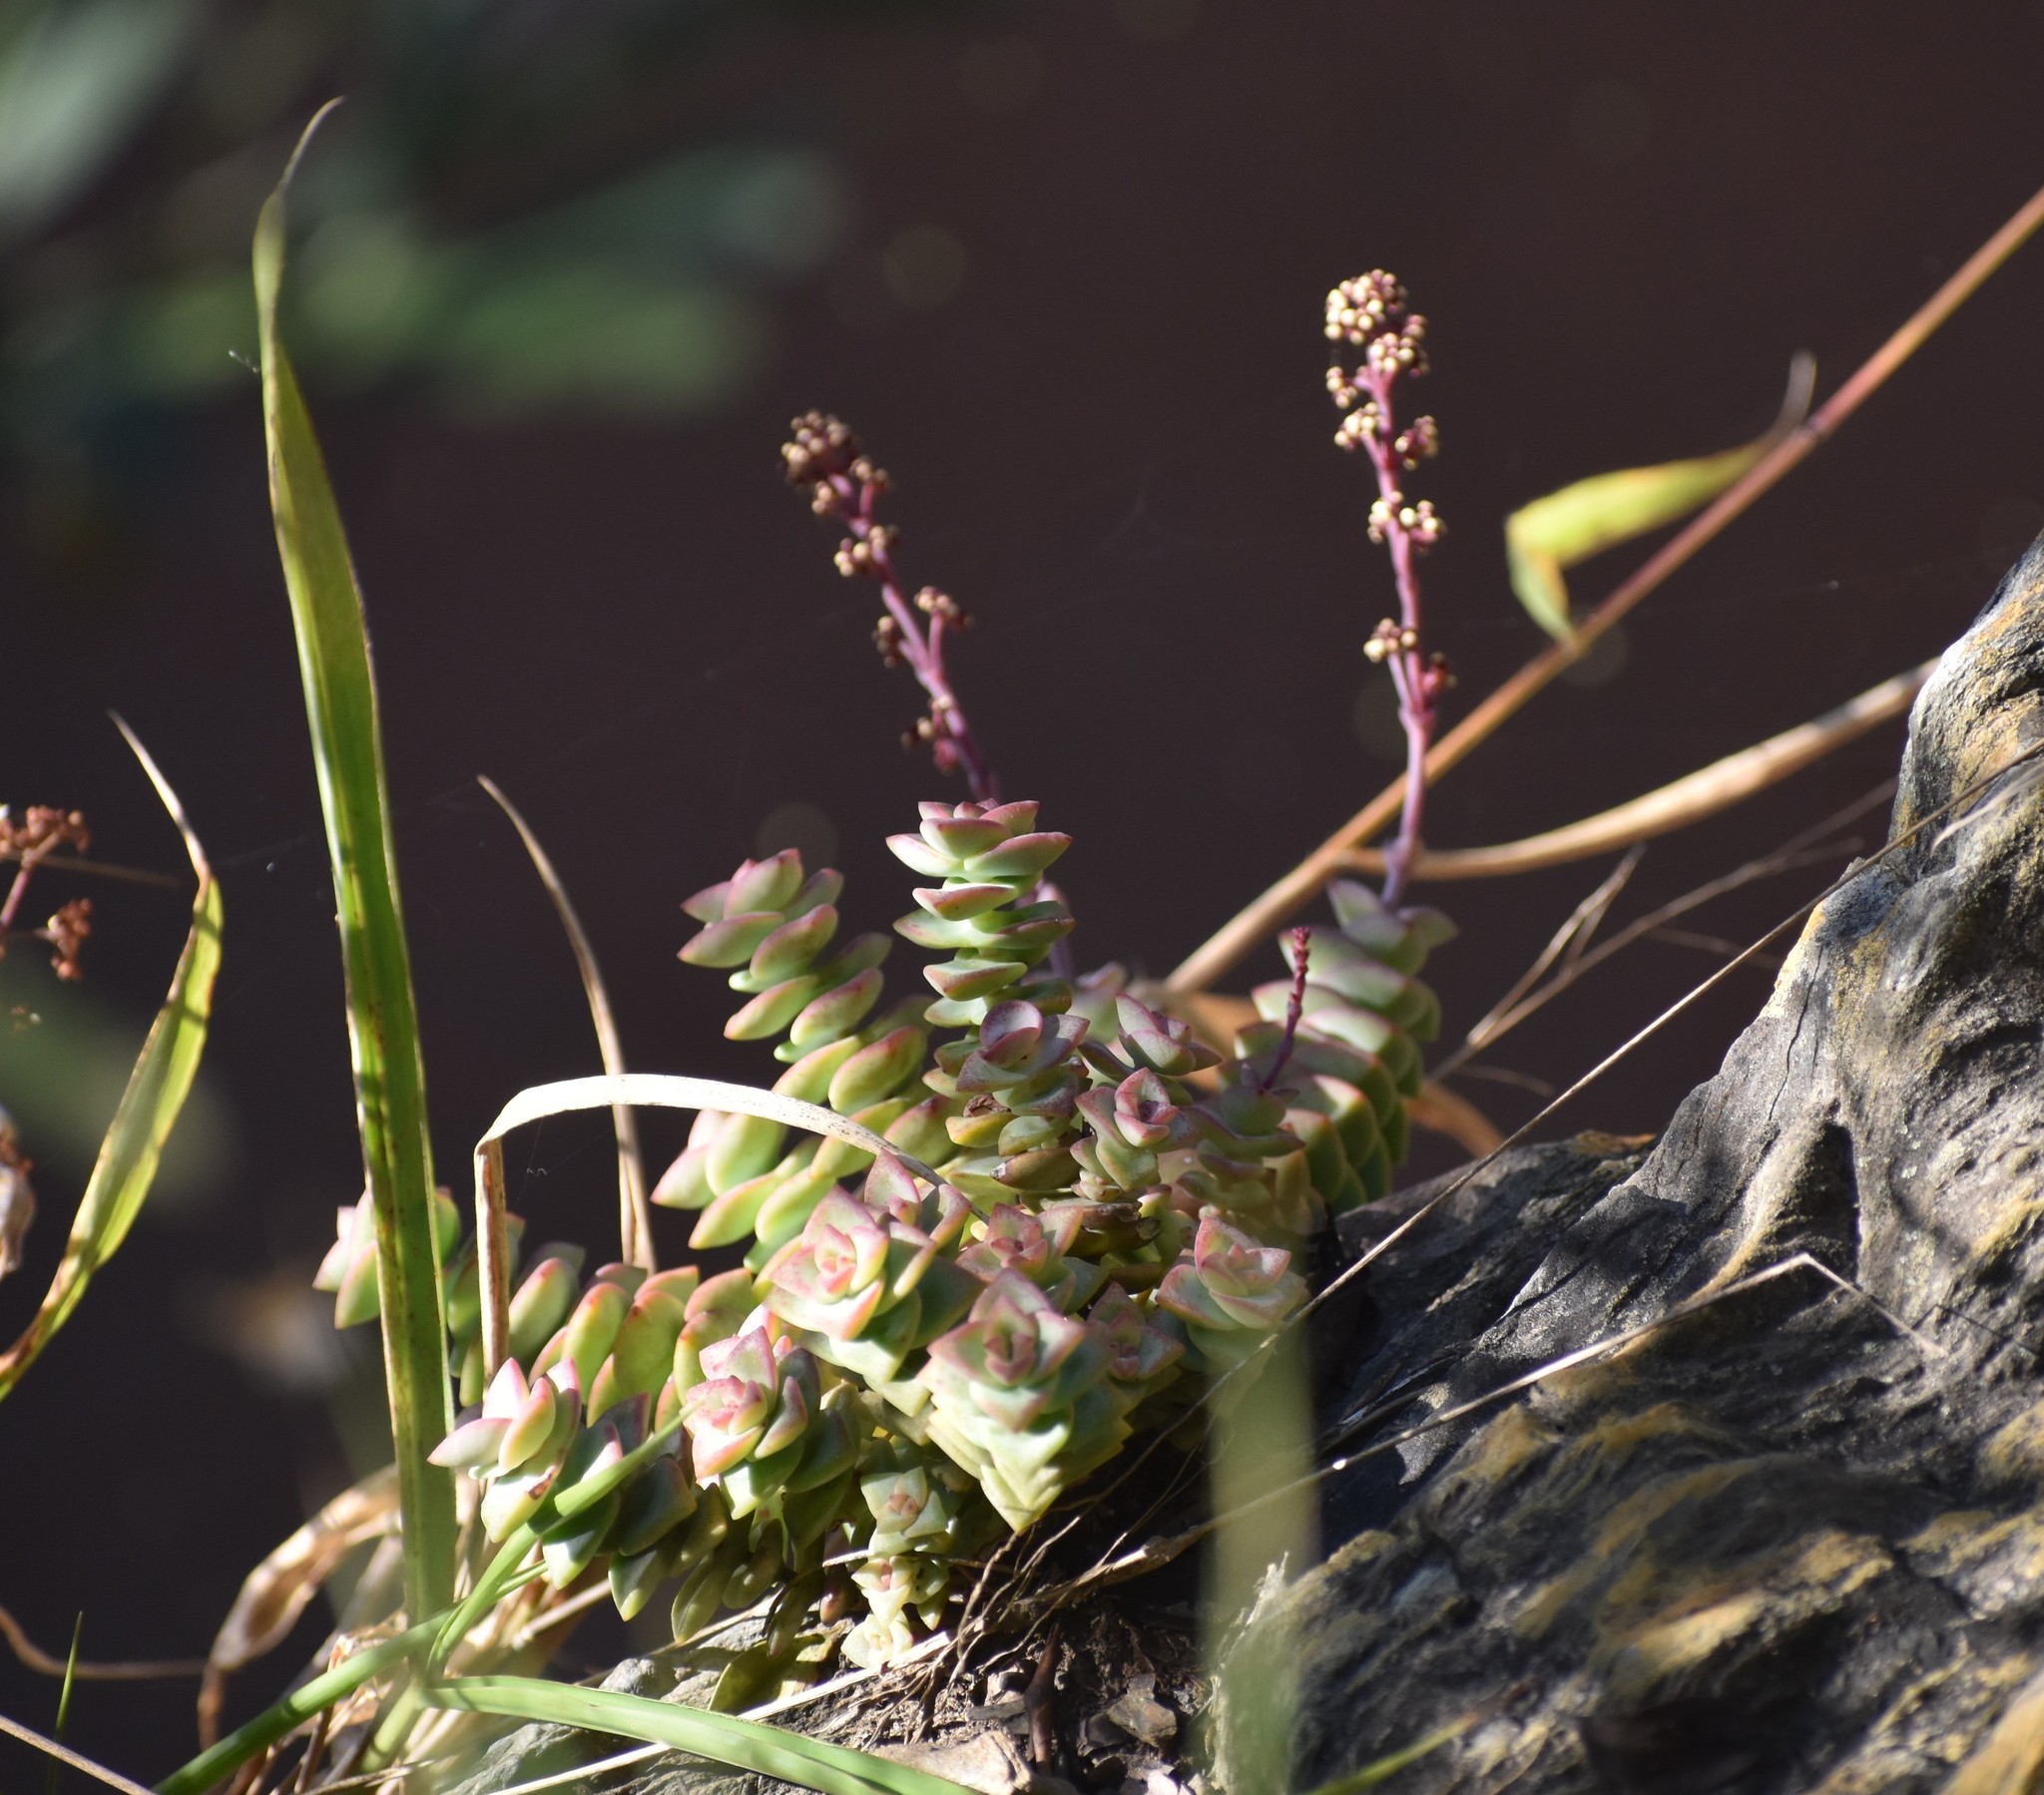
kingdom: Plantae
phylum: Tracheophyta
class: Magnoliopsida
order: Saxifragales
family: Crassulaceae
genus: Crassula
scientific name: Crassula perforata
